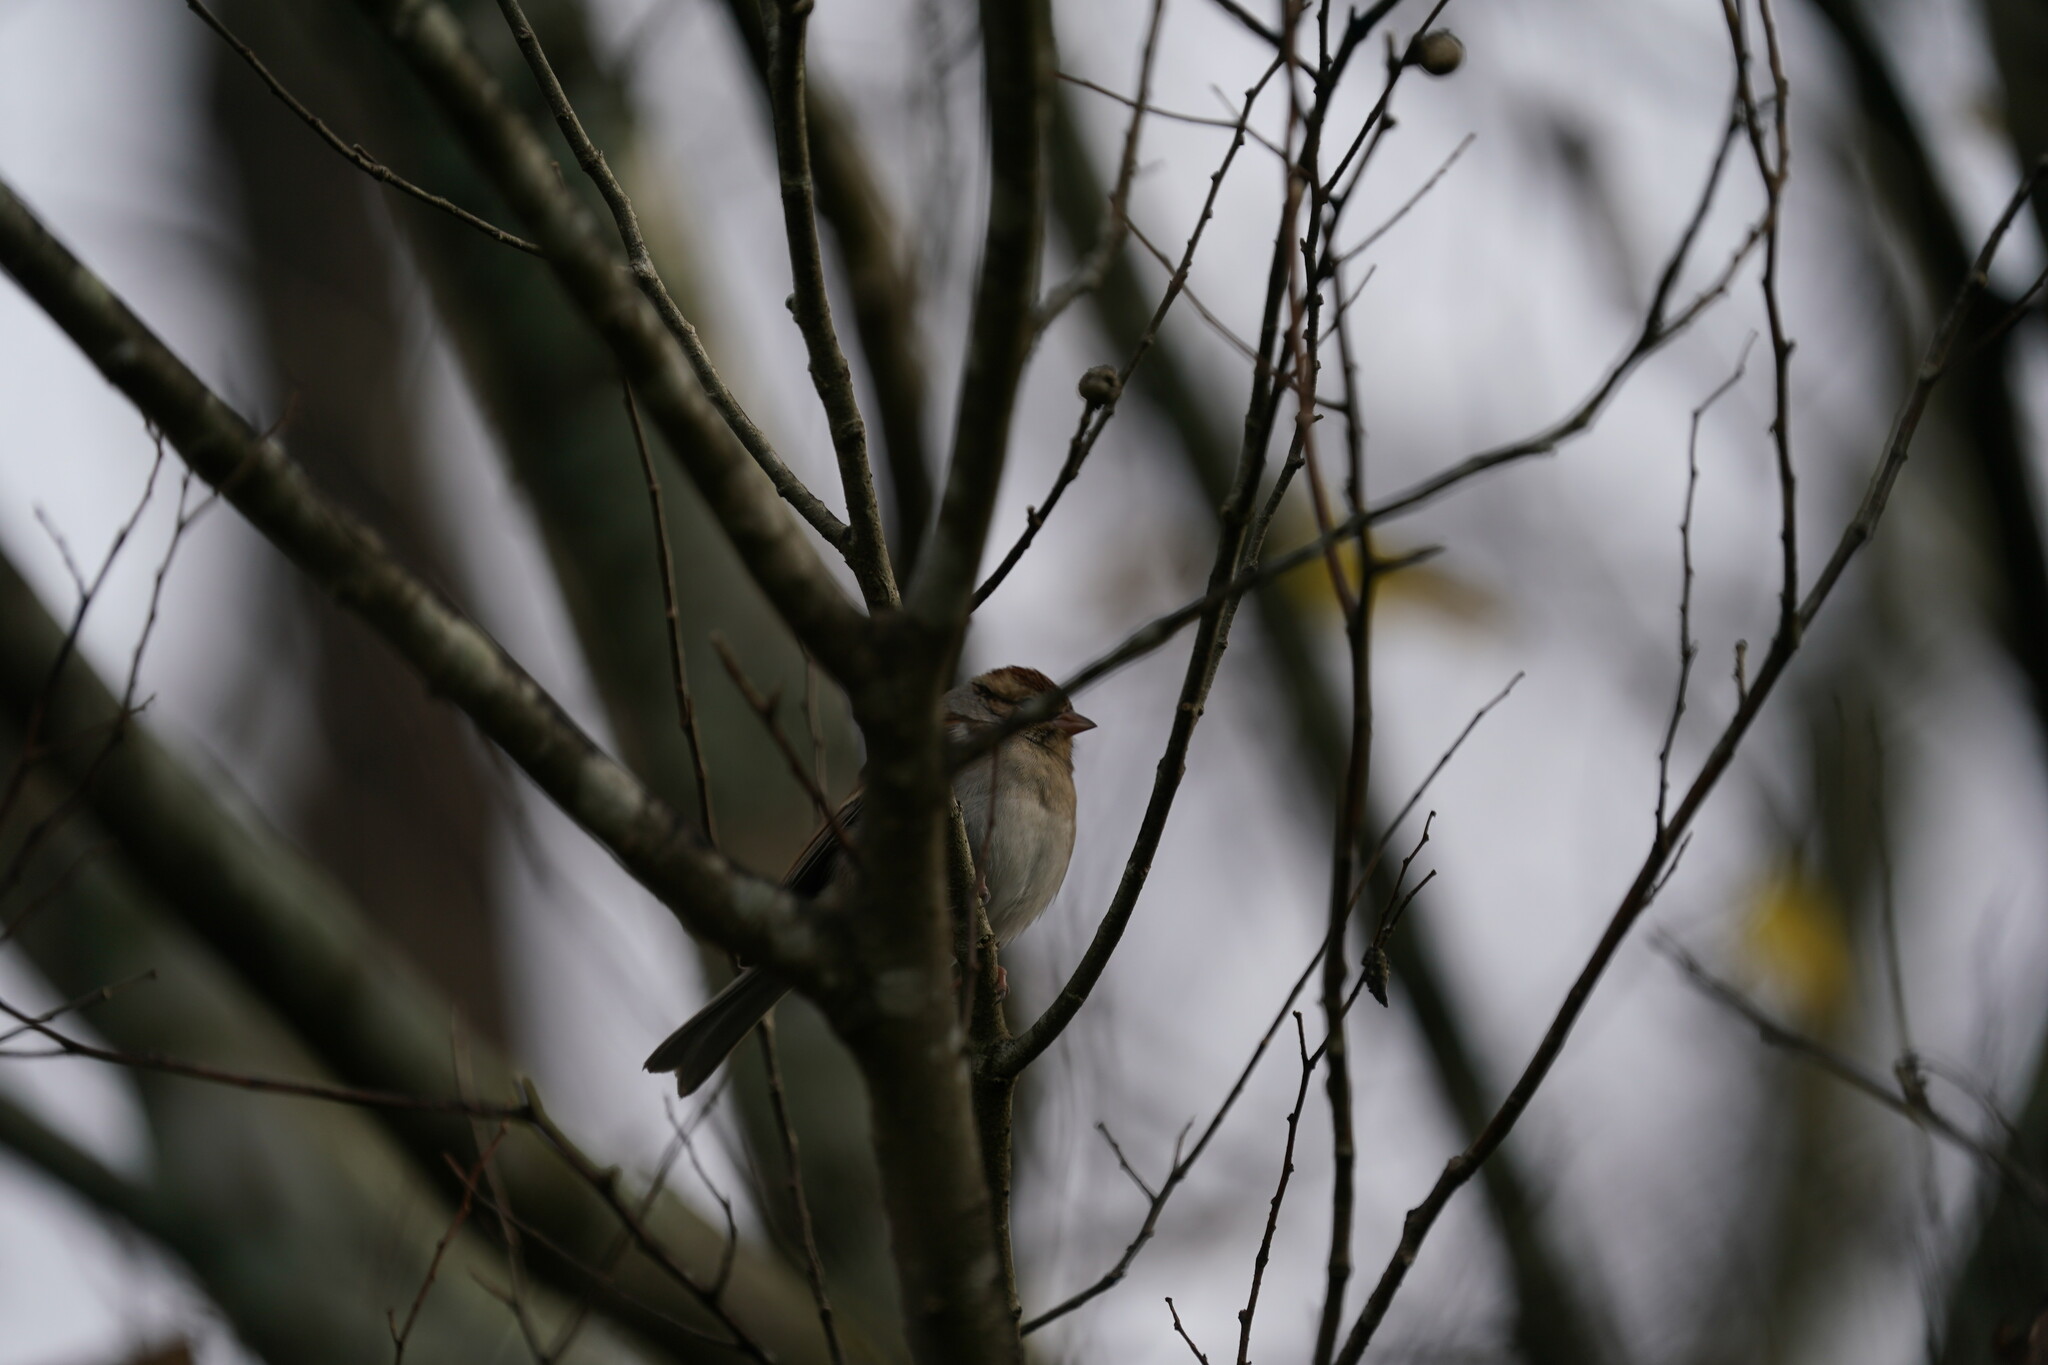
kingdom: Animalia
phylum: Chordata
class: Aves
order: Passeriformes
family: Passerellidae
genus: Spizella
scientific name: Spizella passerina
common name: Chipping sparrow
